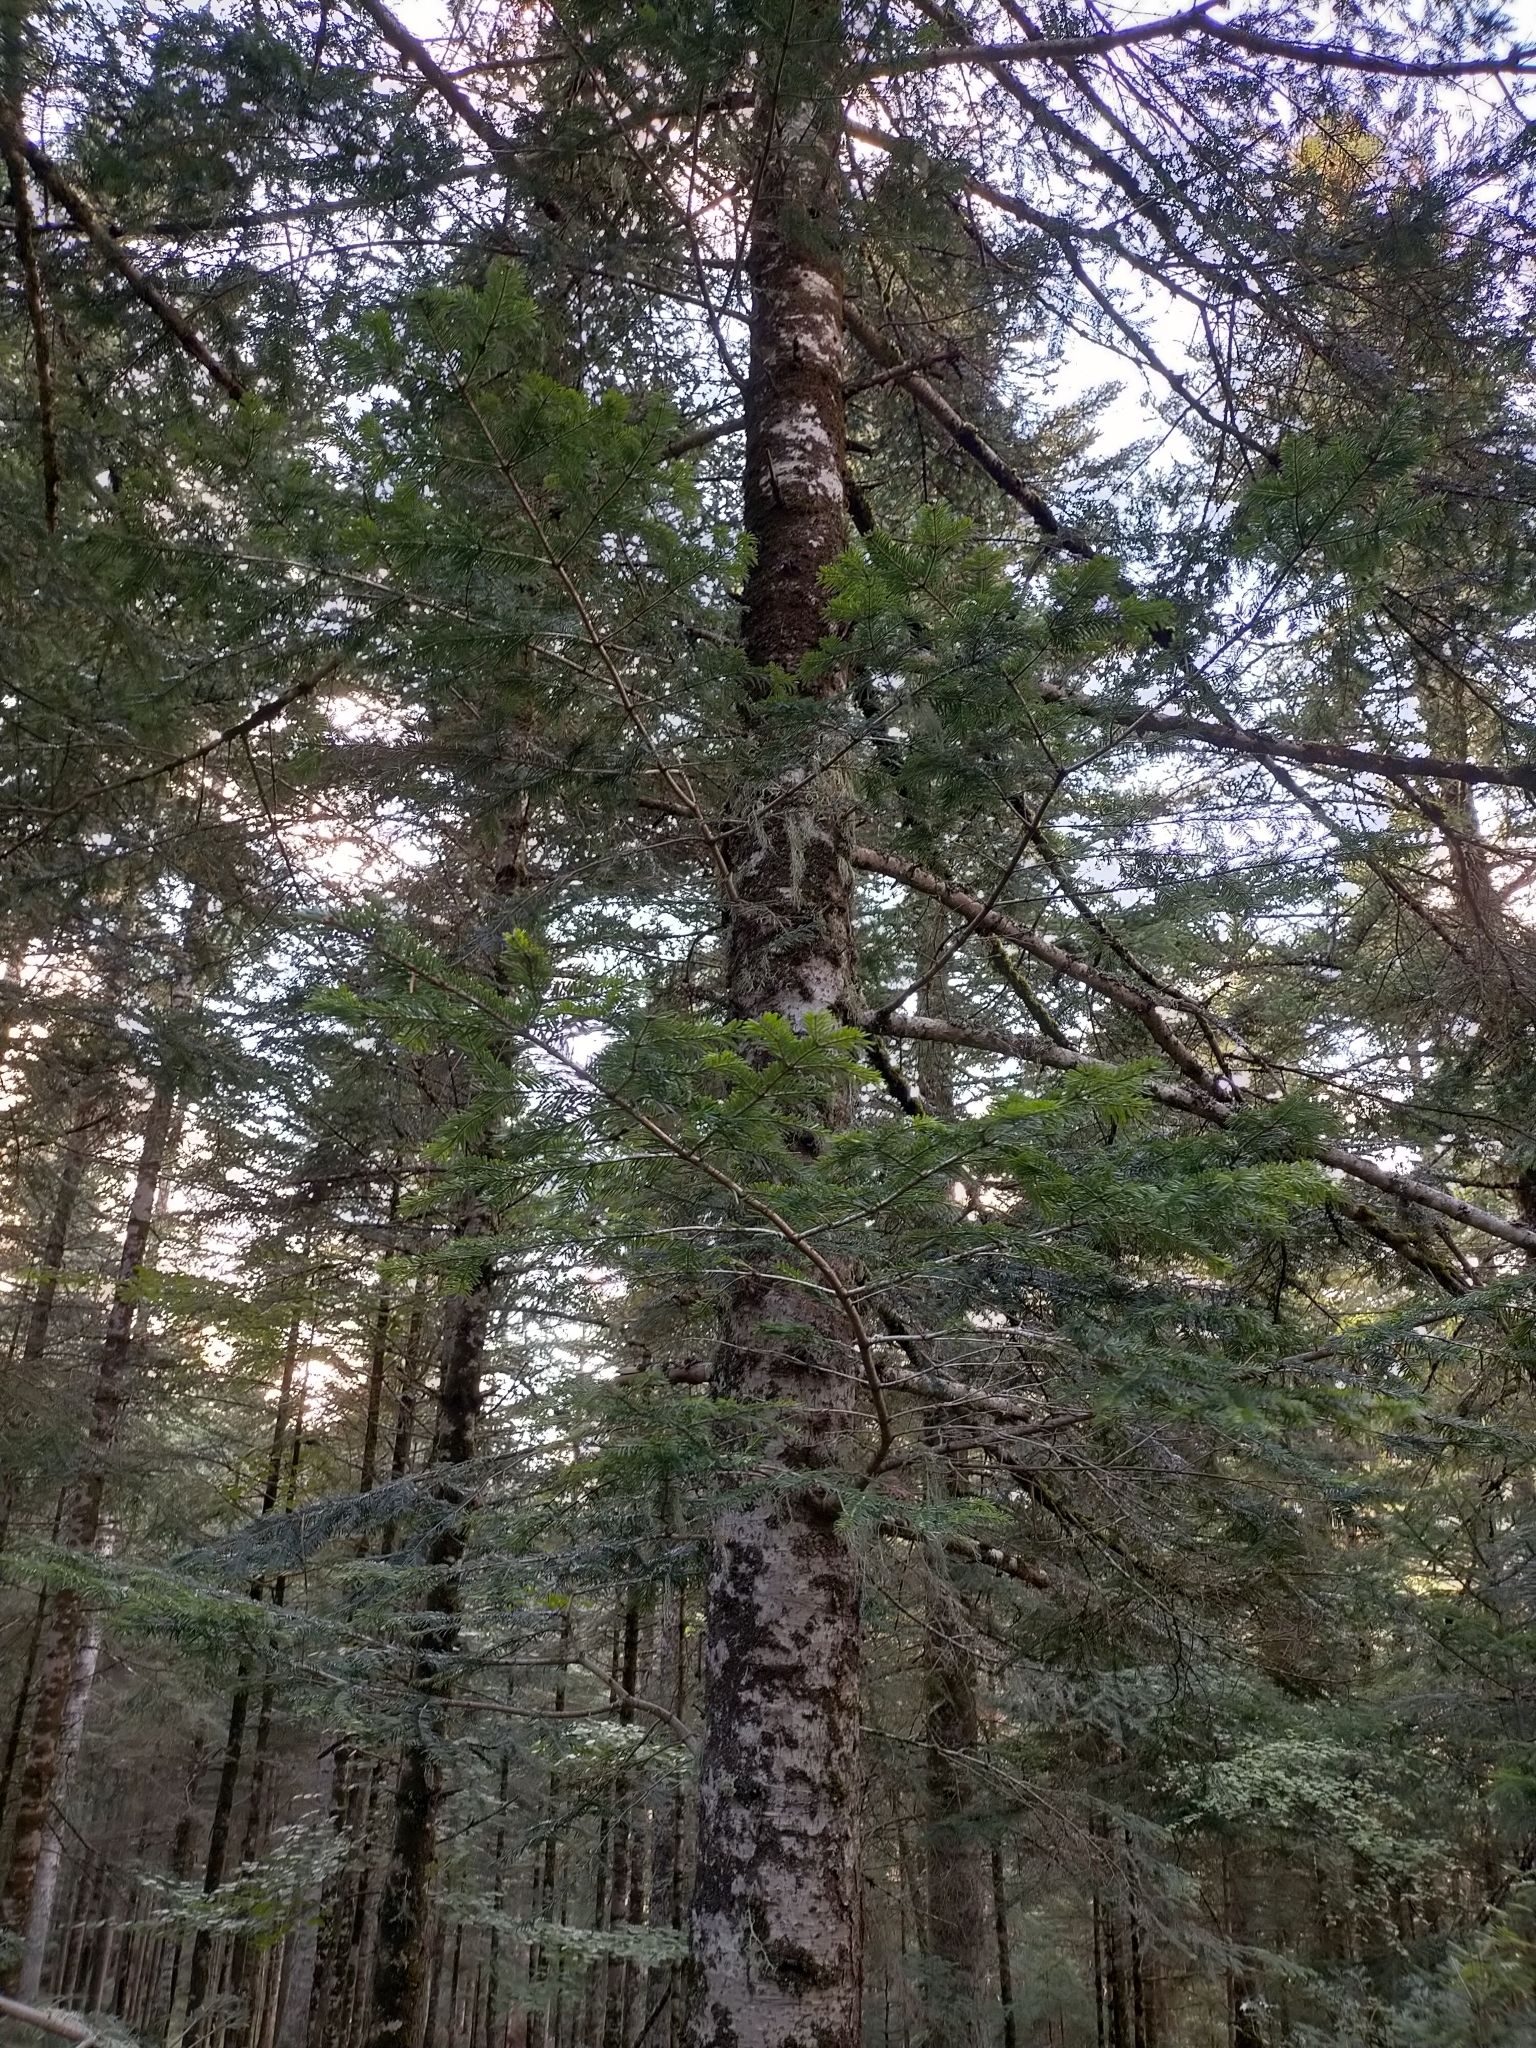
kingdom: Plantae
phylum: Tracheophyta
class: Pinopsida
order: Pinales
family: Pinaceae
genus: Abies
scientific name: Abies alba
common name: Silver fir
